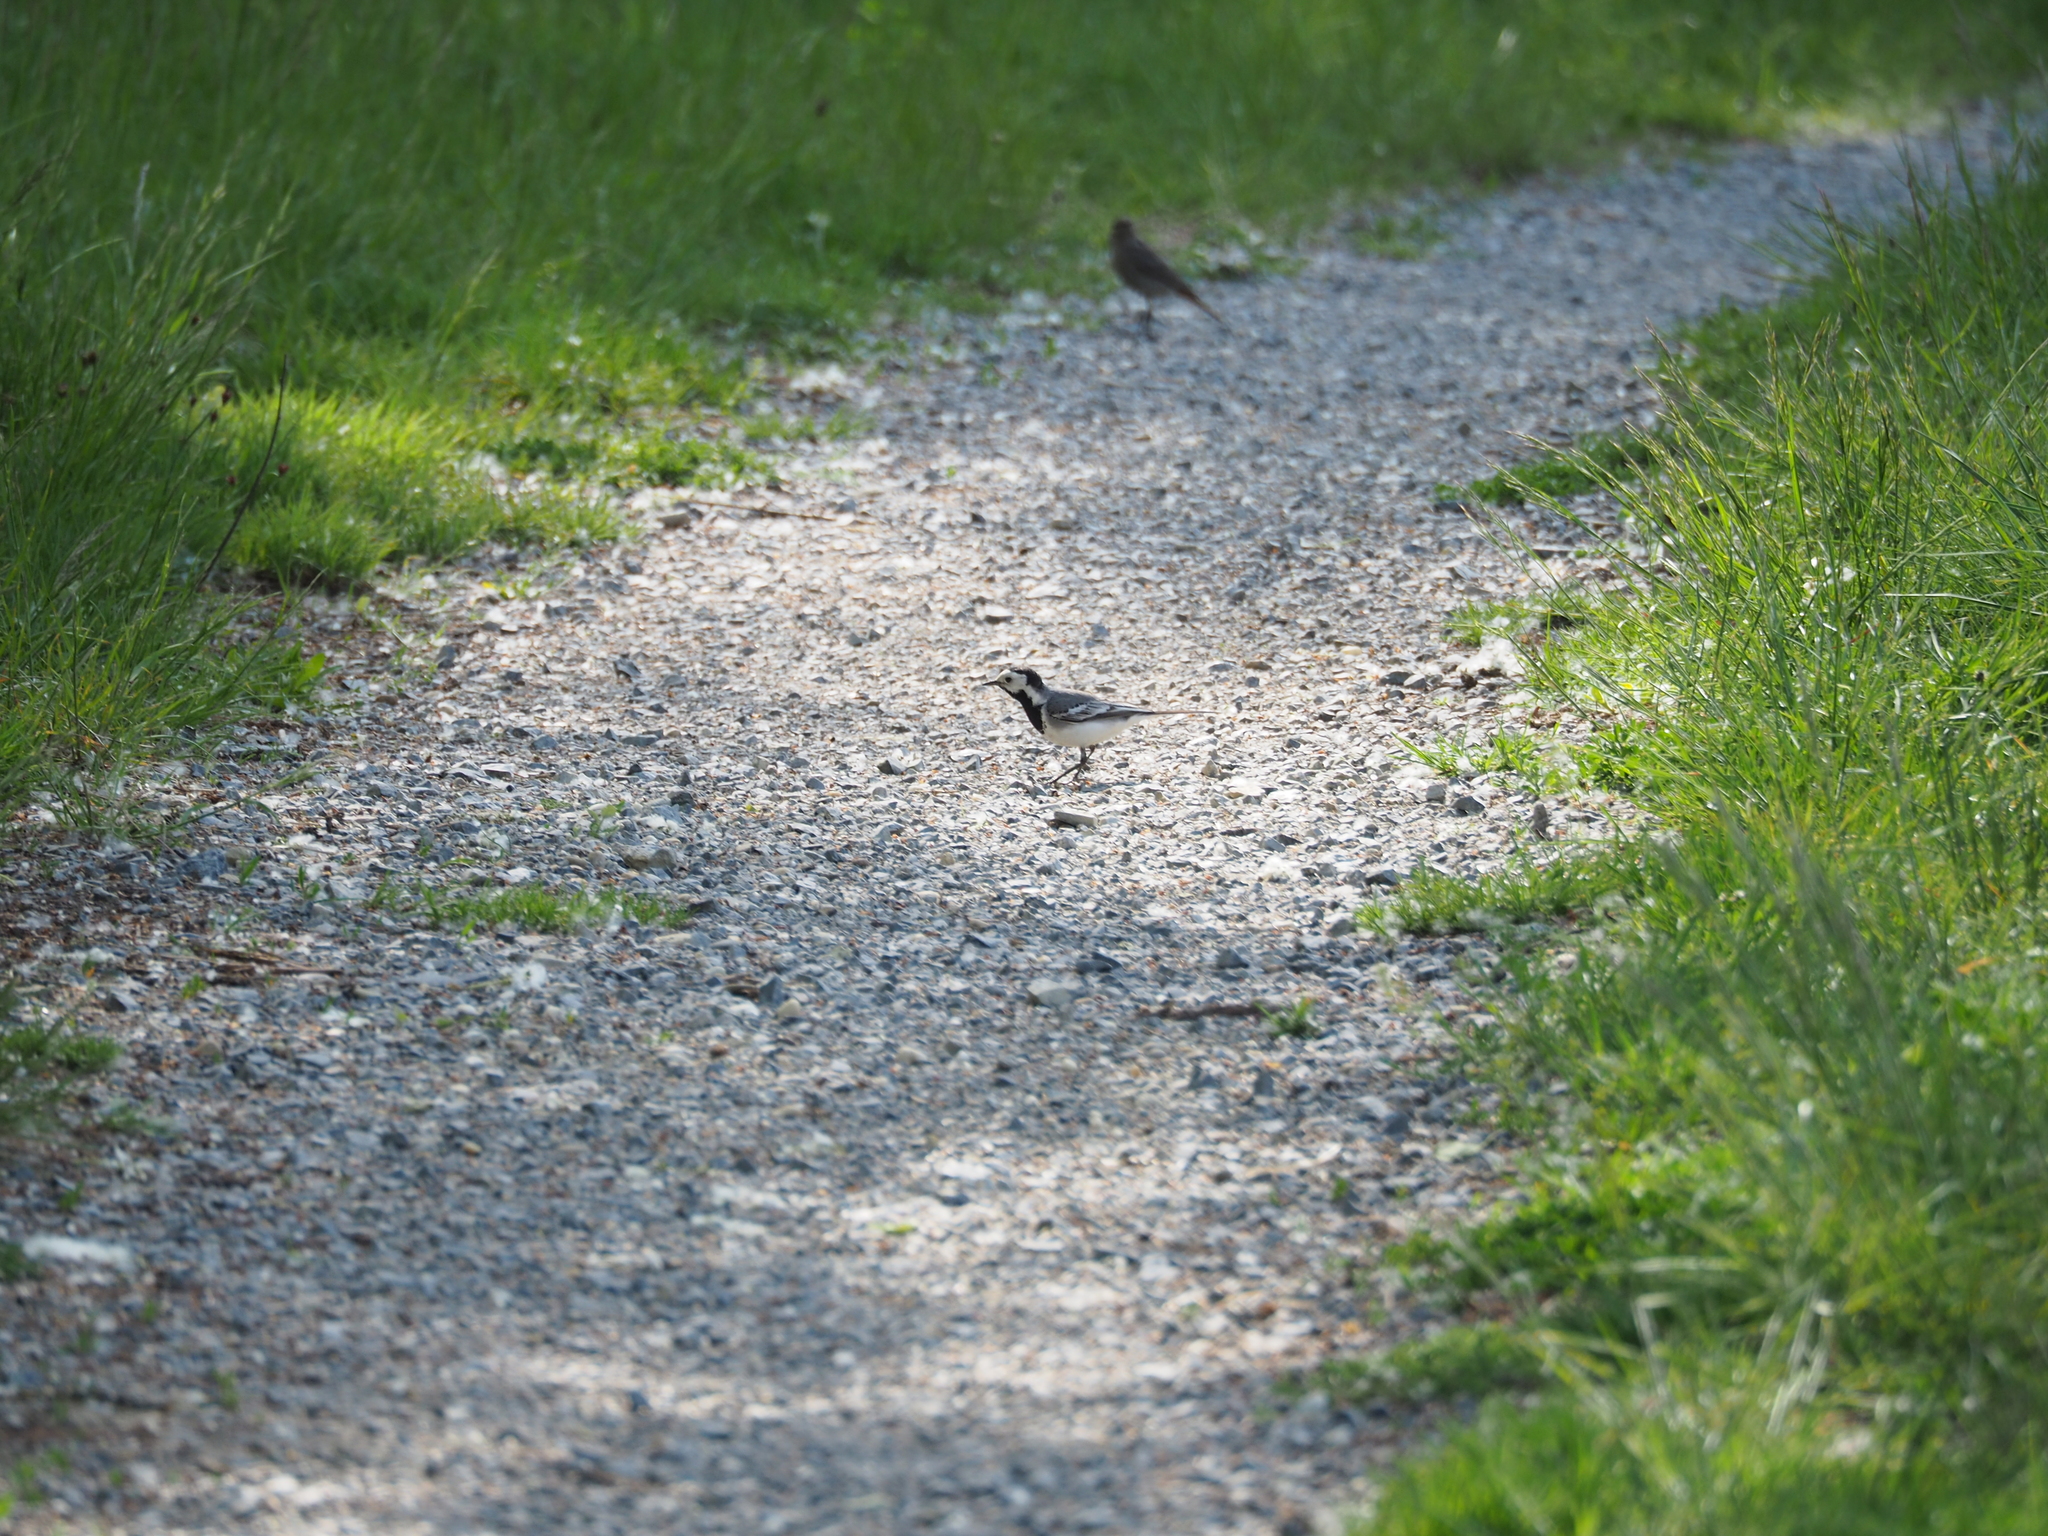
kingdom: Animalia
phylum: Chordata
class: Aves
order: Passeriformes
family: Motacillidae
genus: Motacilla
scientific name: Motacilla alba
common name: White wagtail
